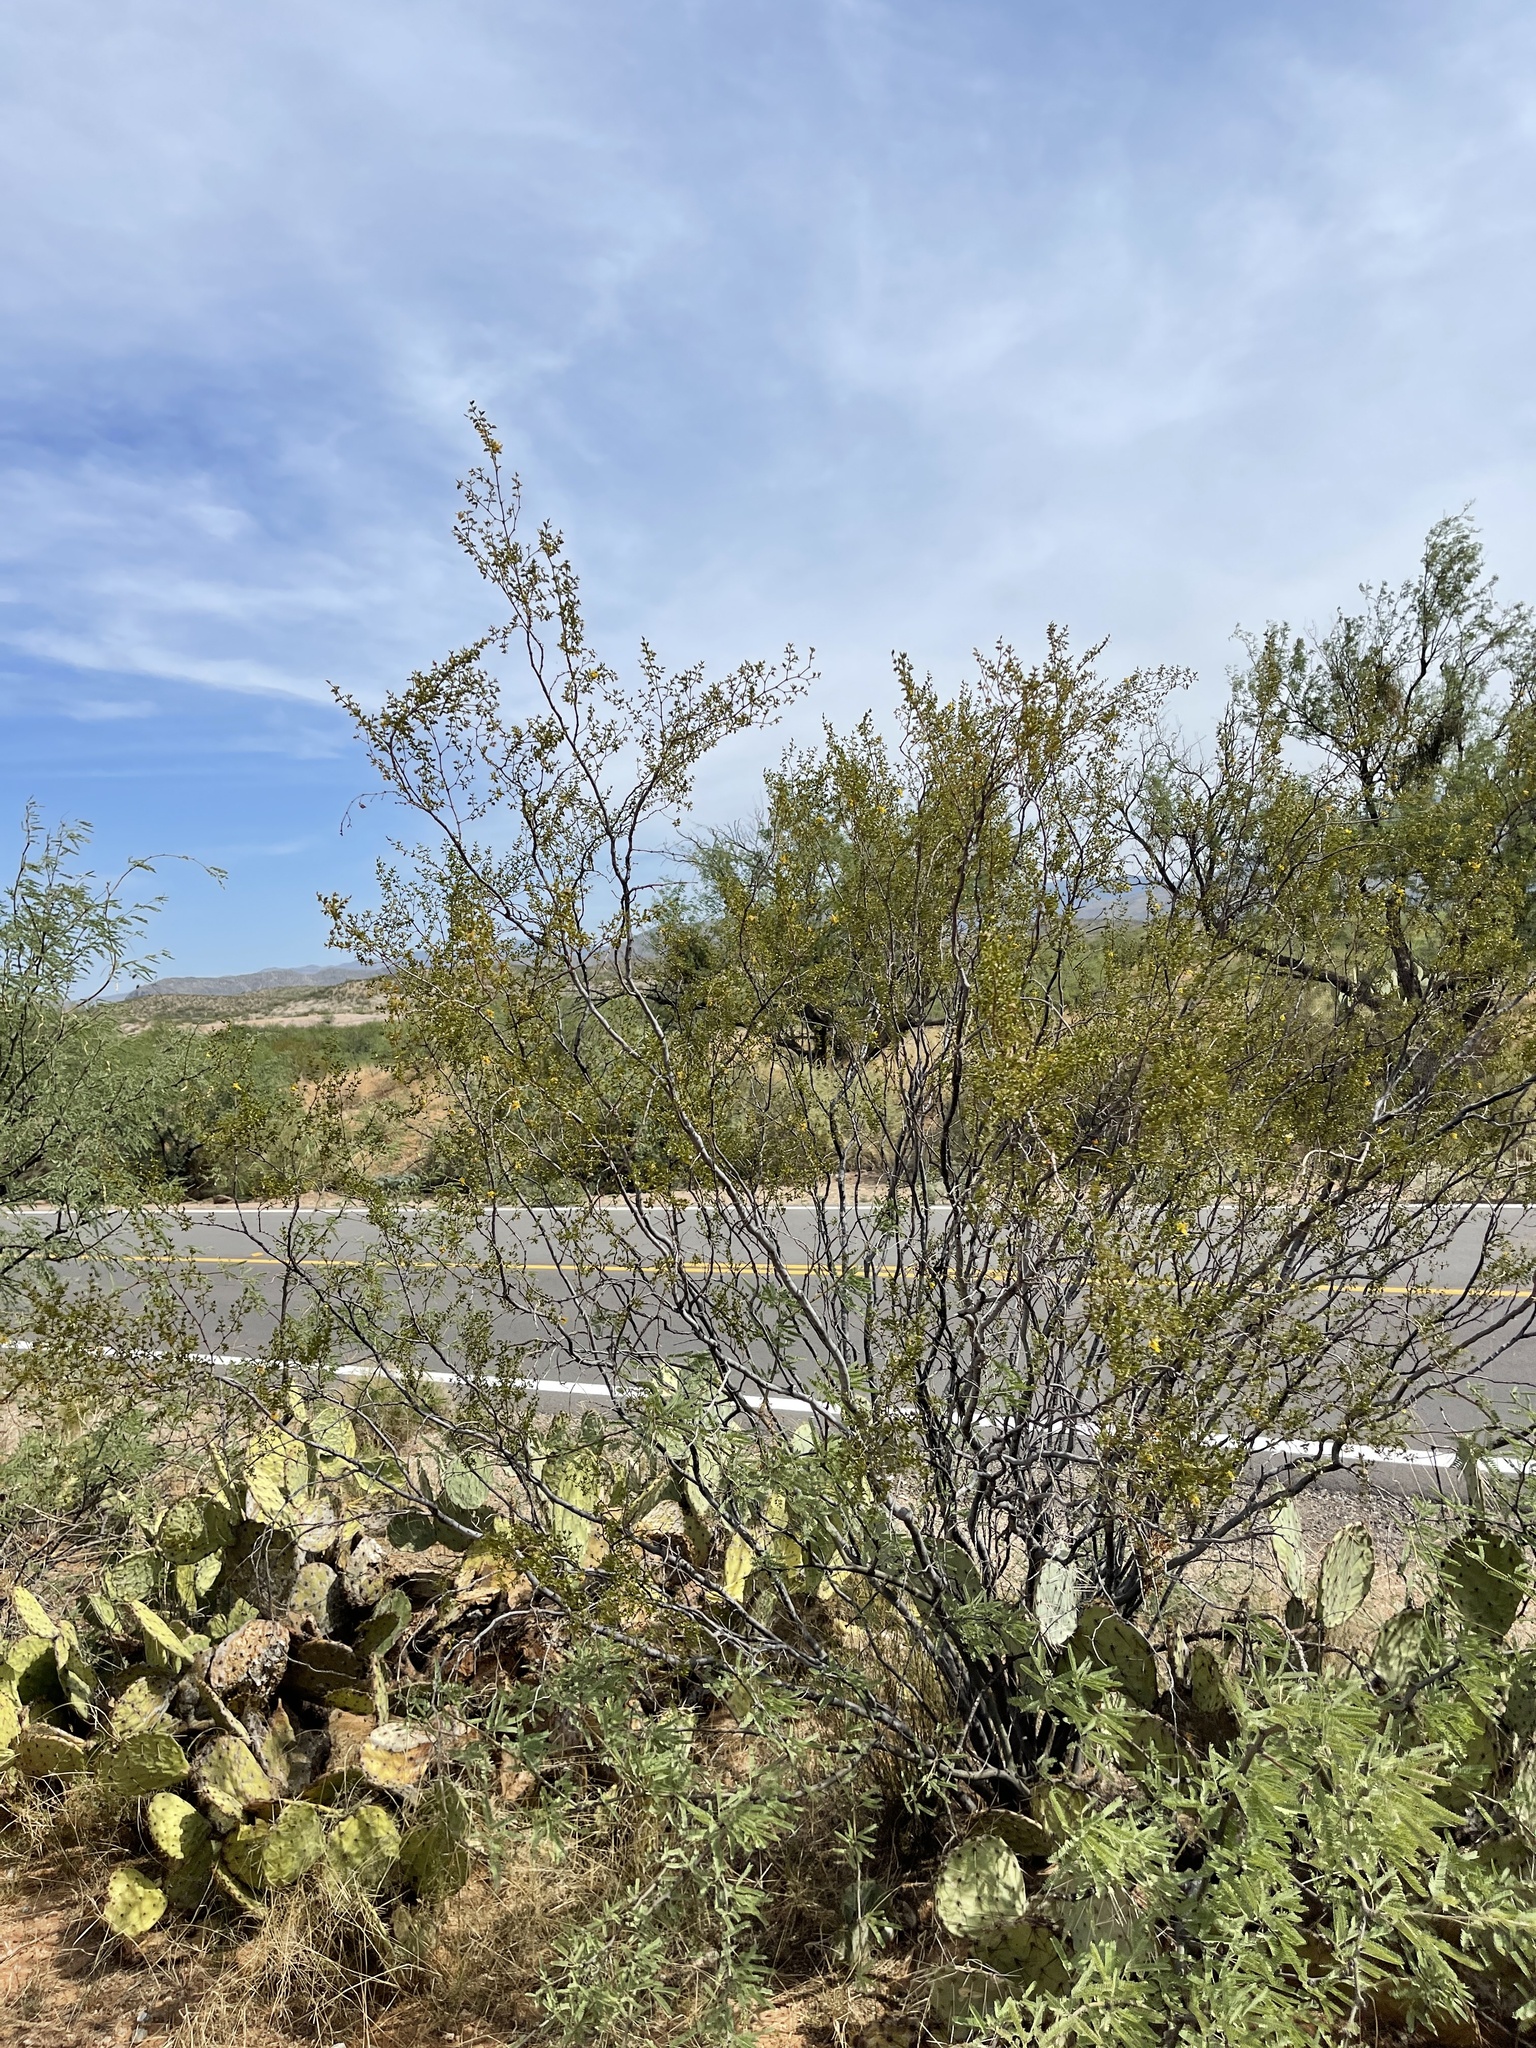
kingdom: Plantae
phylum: Tracheophyta
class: Magnoliopsida
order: Zygophyllales
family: Zygophyllaceae
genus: Larrea
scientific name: Larrea tridentata
